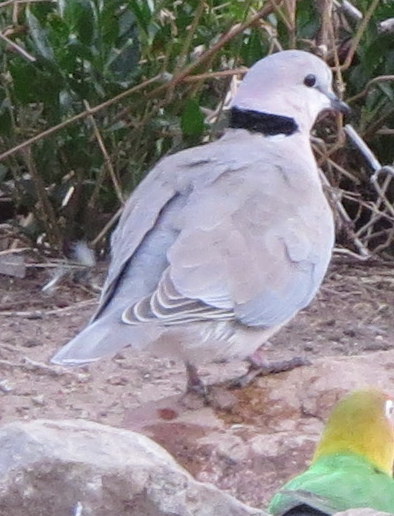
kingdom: Animalia
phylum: Chordata
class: Aves
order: Columbiformes
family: Columbidae
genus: Streptopelia
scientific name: Streptopelia capicola
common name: Ring-necked dove
